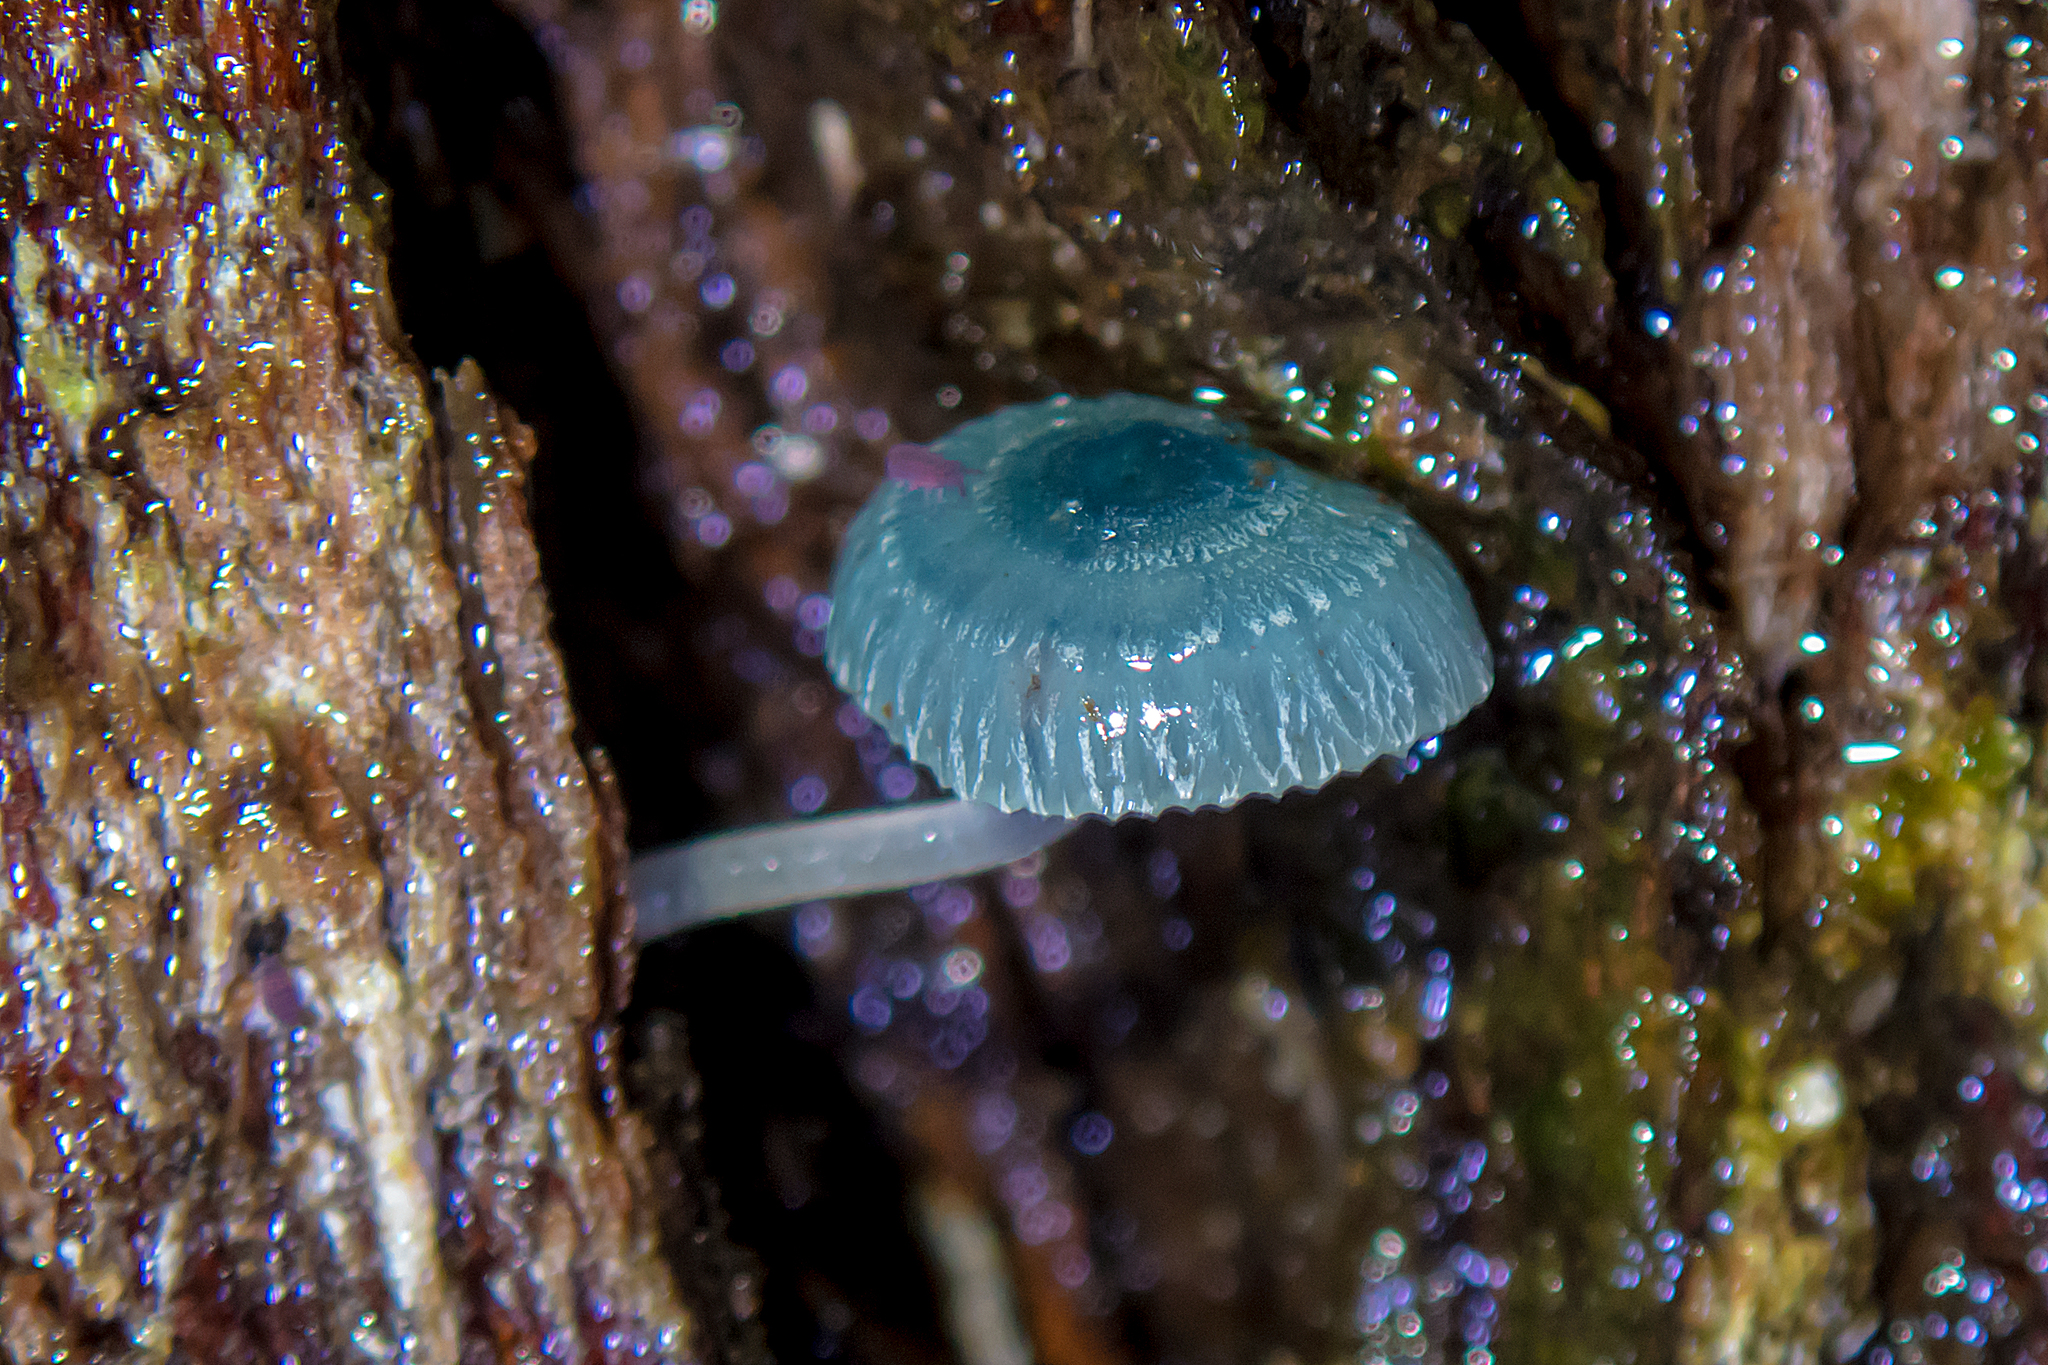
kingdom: Fungi
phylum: Basidiomycota
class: Agaricomycetes
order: Agaricales
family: Mycenaceae
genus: Mycena
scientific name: Mycena interrupta
